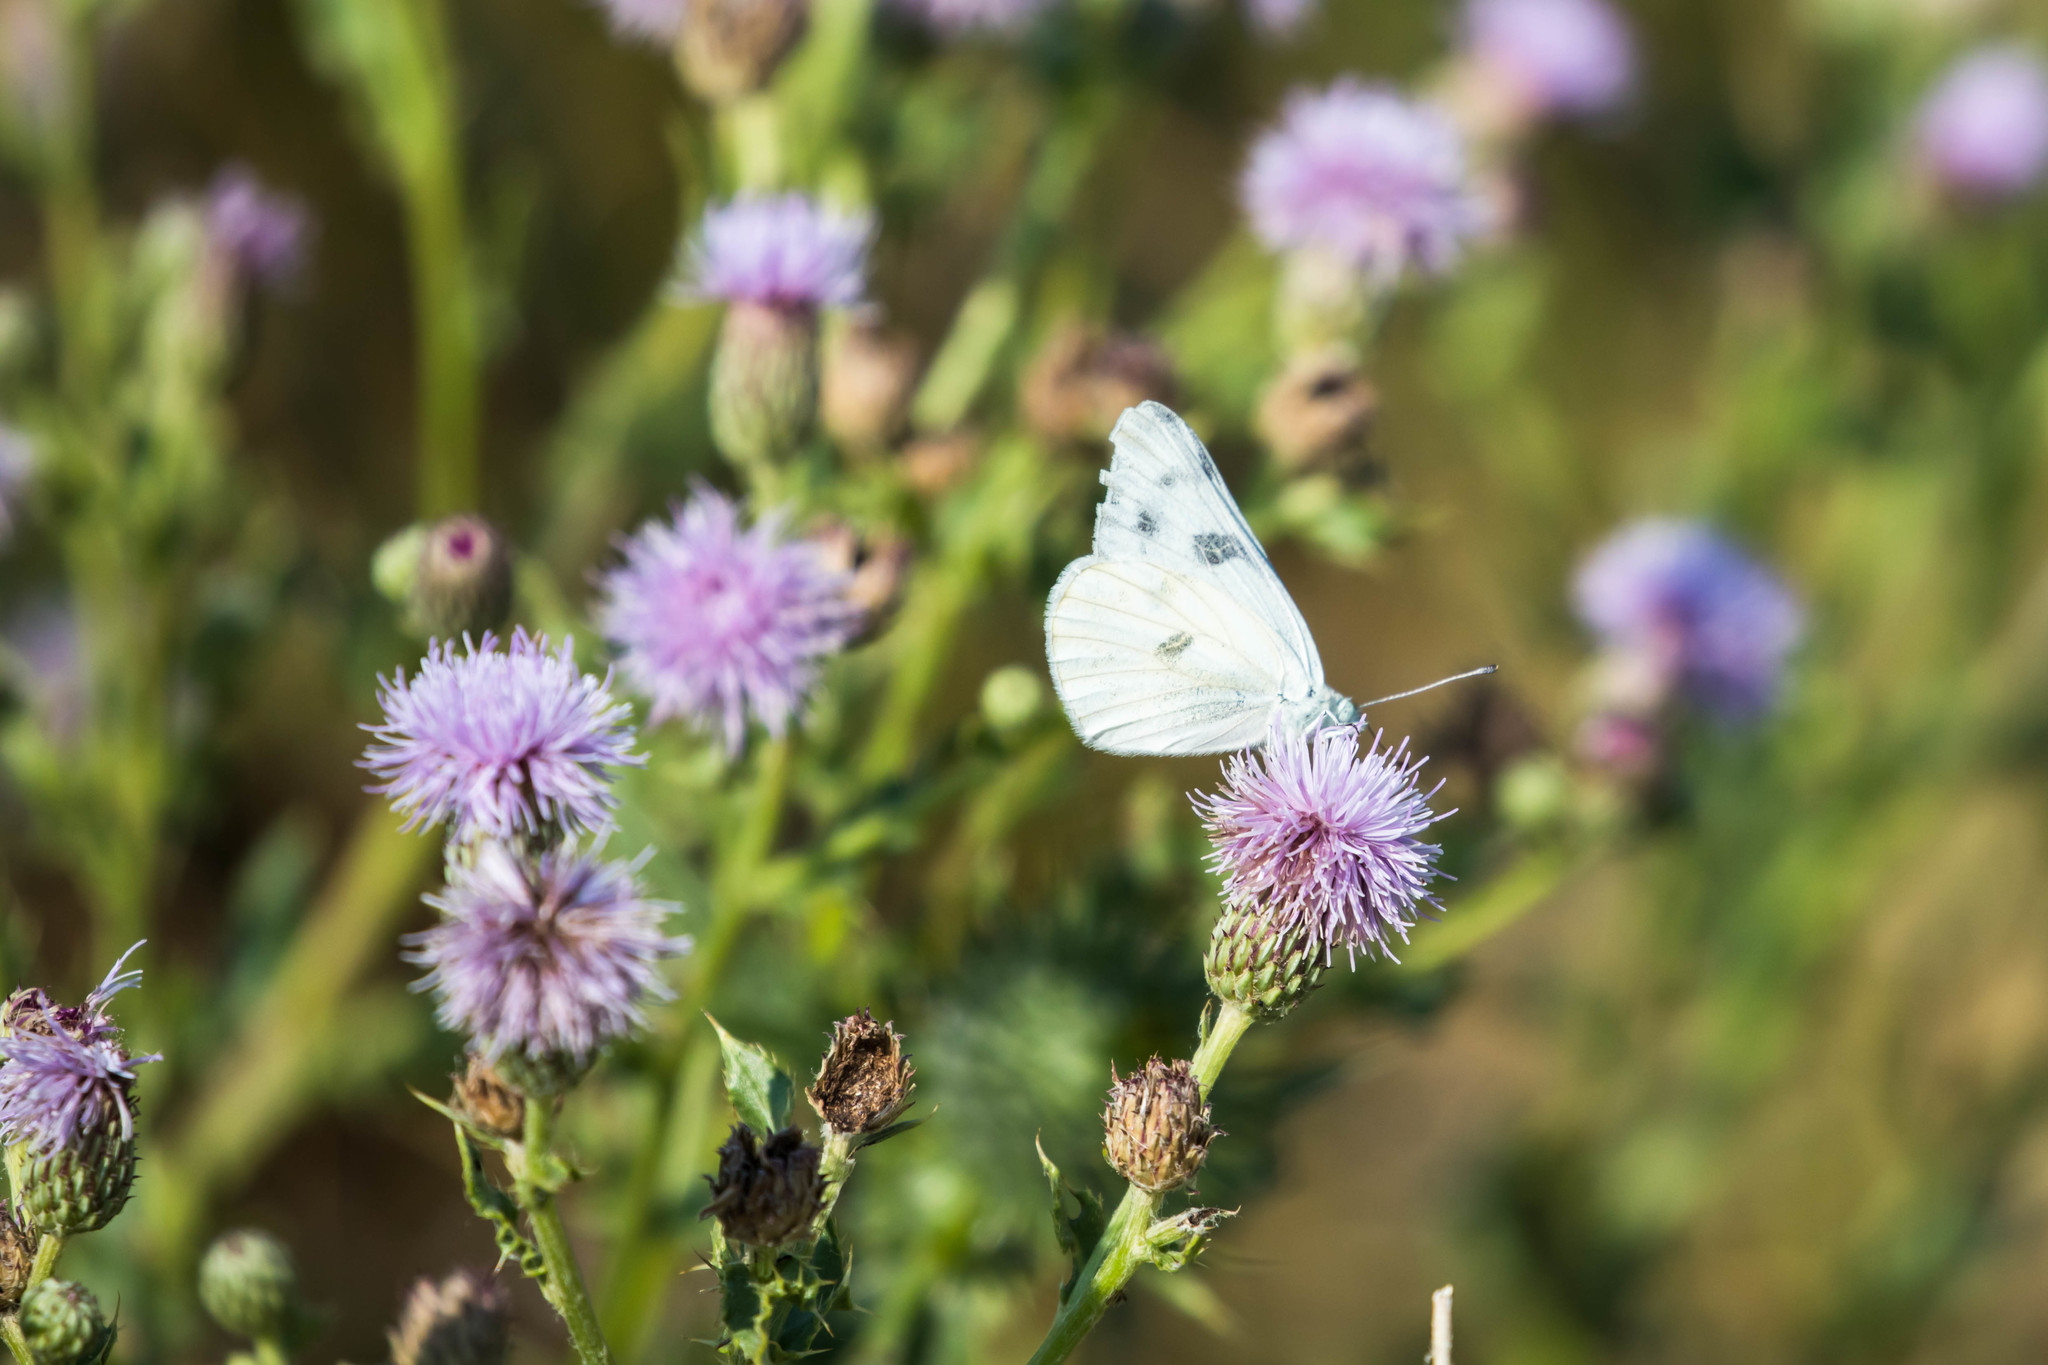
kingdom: Animalia
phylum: Arthropoda
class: Insecta
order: Lepidoptera
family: Pieridae
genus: Pontia
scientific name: Pontia occidentalis
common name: Western white
